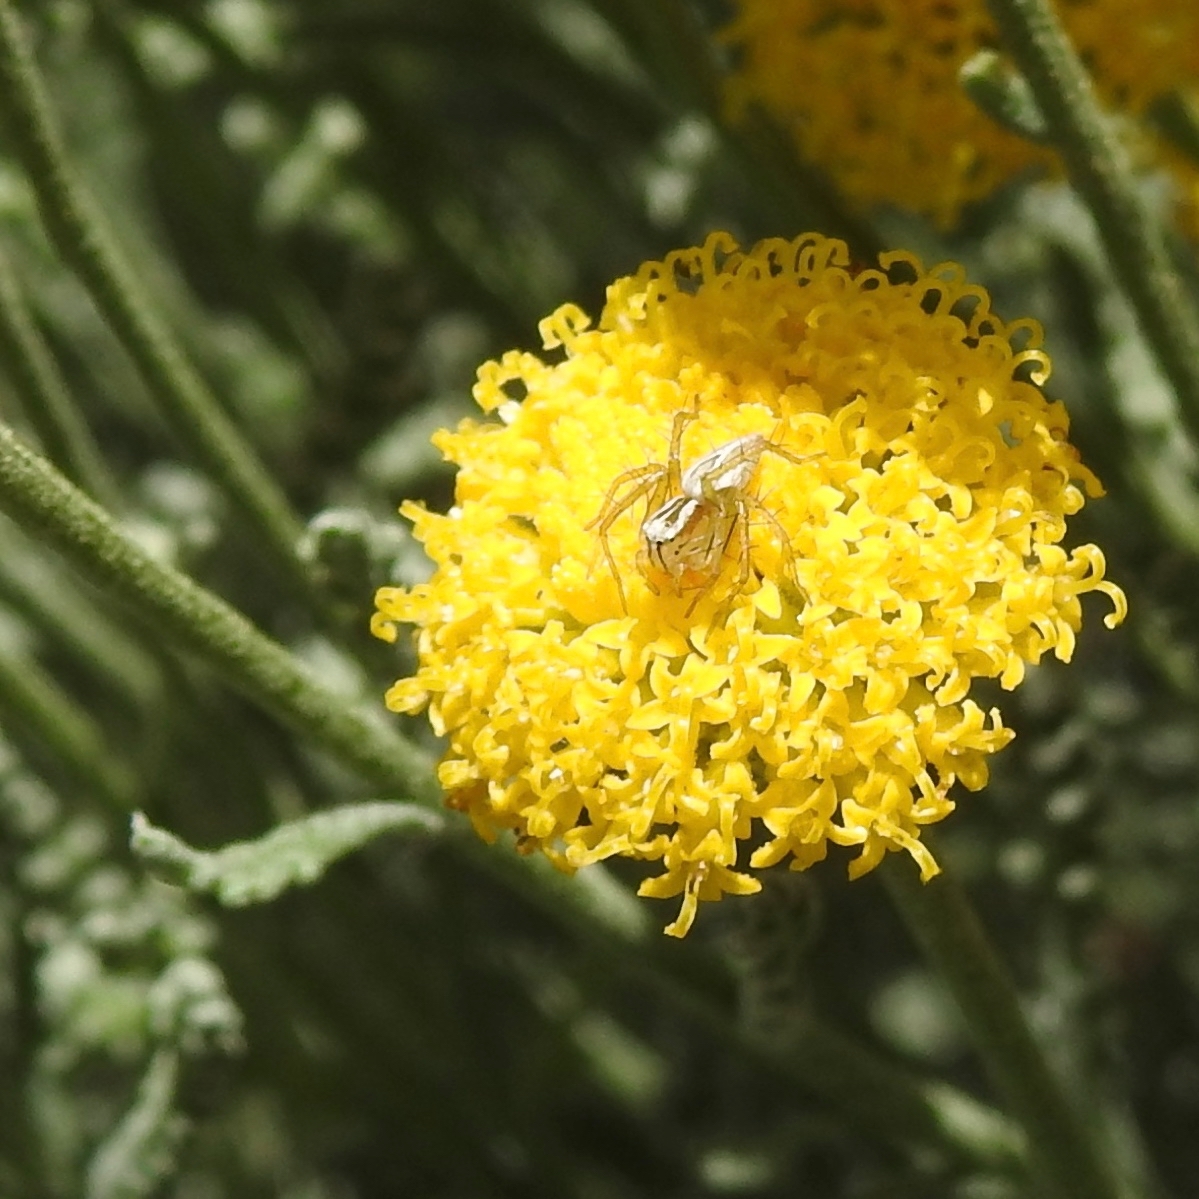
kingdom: Animalia
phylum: Arthropoda
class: Arachnida
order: Araneae
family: Oxyopidae
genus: Oxyopes
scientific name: Oxyopes salticus
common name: Lynx spiders
